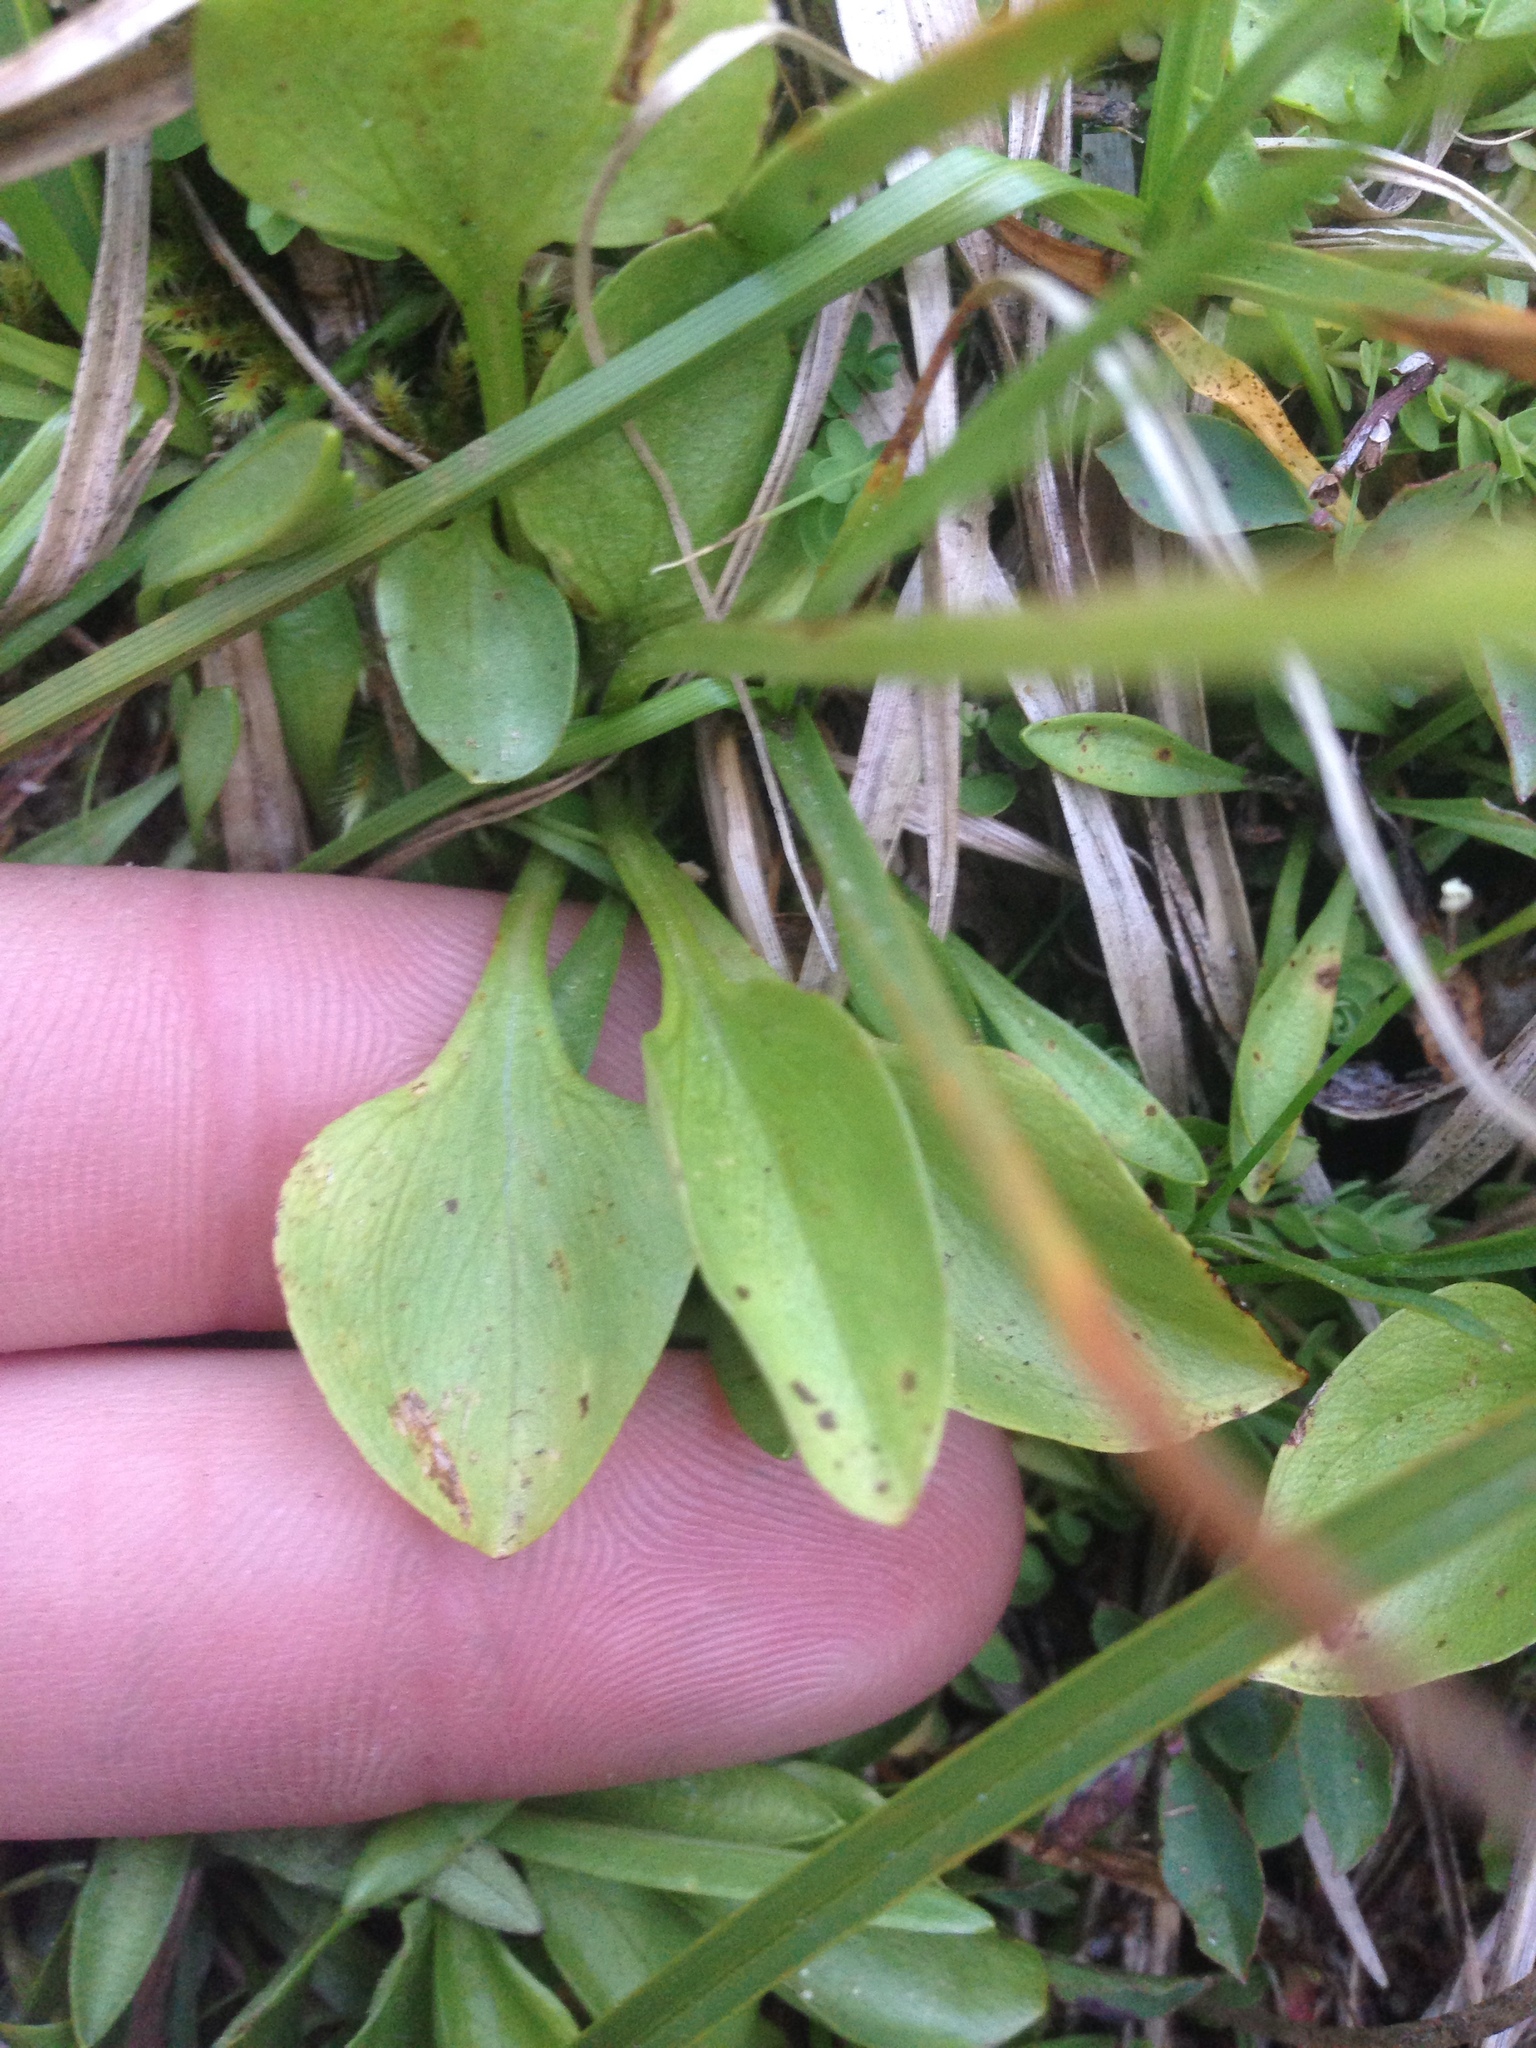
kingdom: Plantae
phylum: Tracheophyta
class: Magnoliopsida
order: Celastrales
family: Parnassiaceae
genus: Parnassia
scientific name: Parnassia palustris
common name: Grass-of-parnassus
